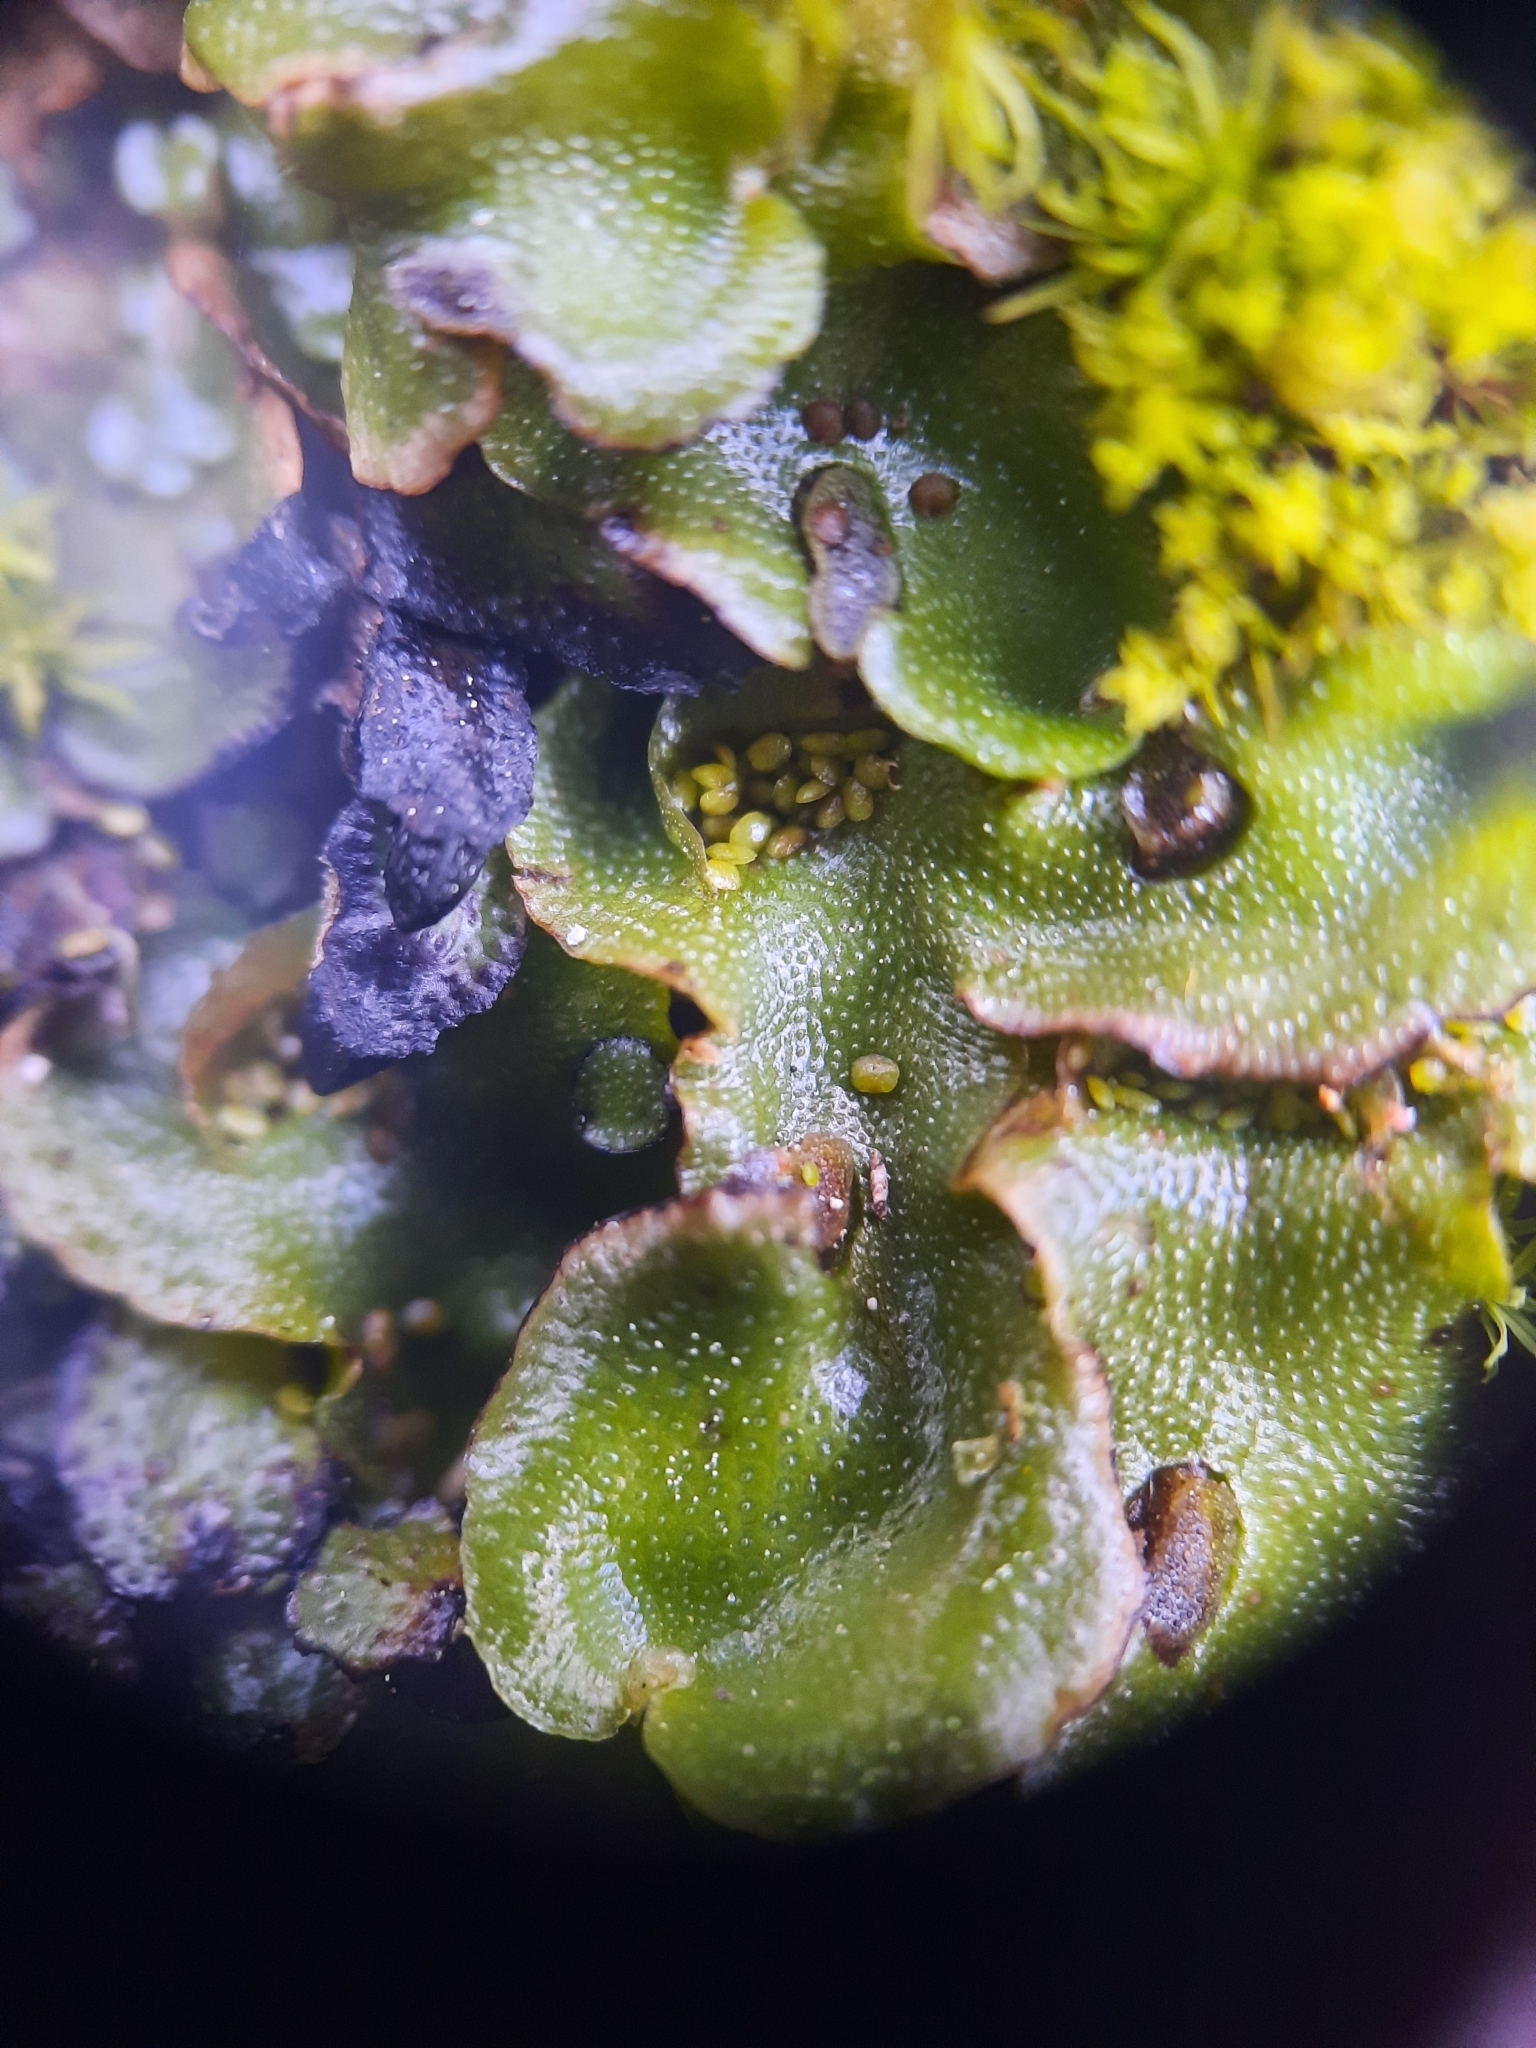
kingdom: Plantae
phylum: Marchantiophyta
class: Marchantiopsida
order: Lunulariales
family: Lunulariaceae
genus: Lunularia
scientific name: Lunularia cruciata
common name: Crescent-cup liverwort
